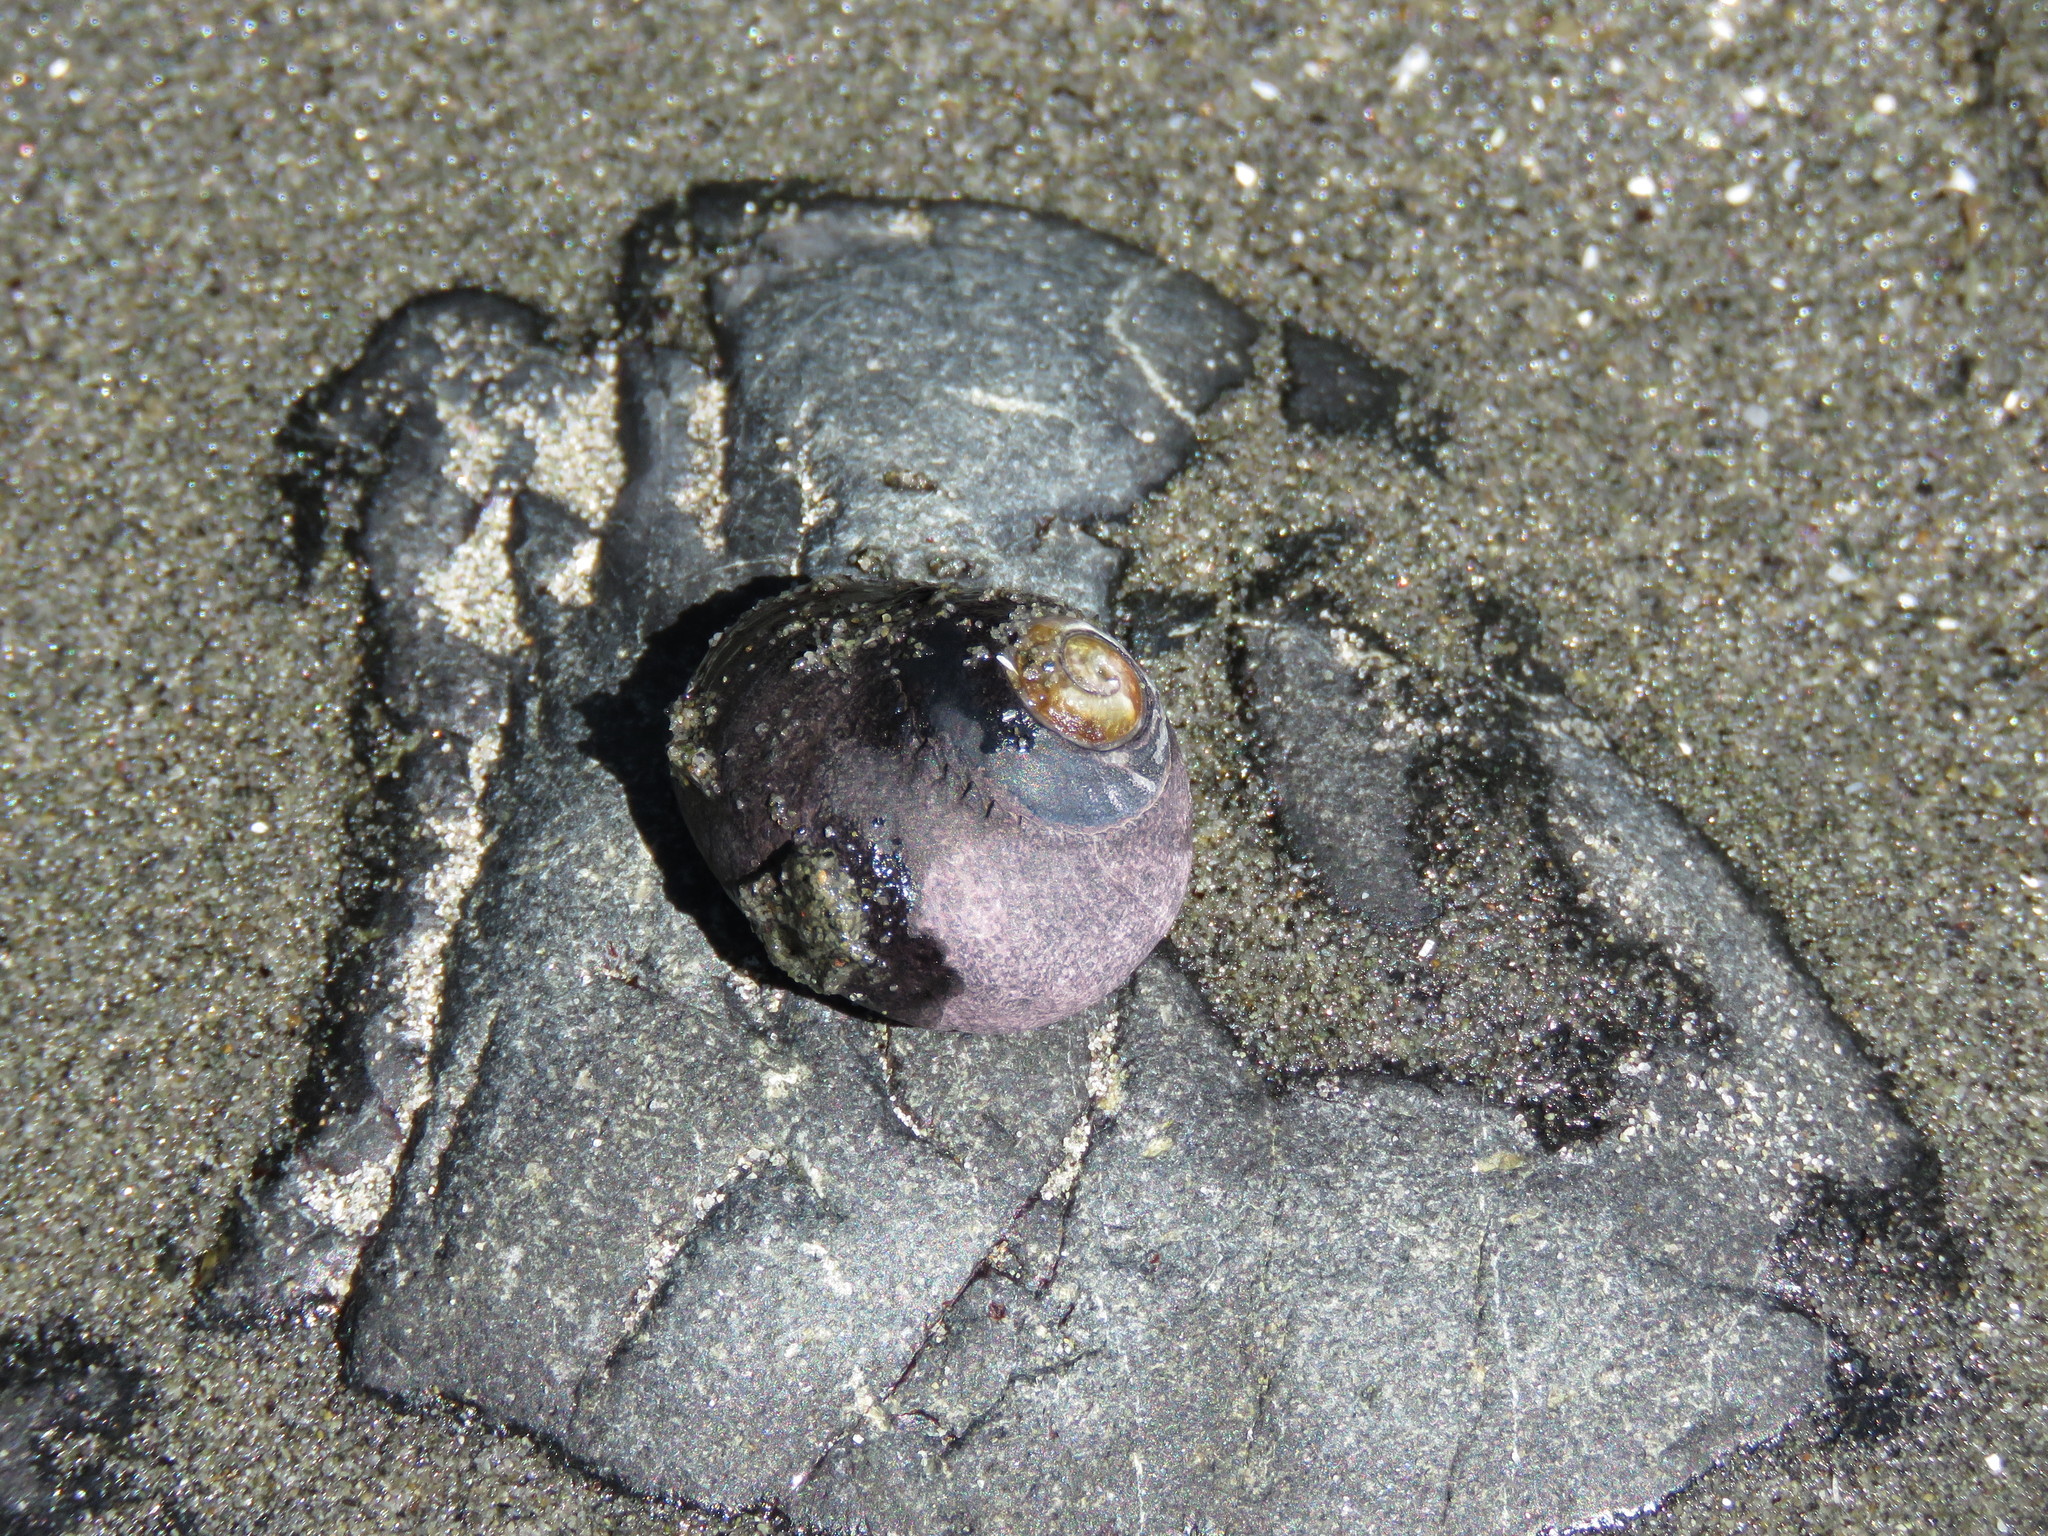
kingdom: Animalia
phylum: Mollusca
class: Gastropoda
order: Trochida
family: Tegulidae
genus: Tegula
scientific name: Tegula funebralis
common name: Black tegula
